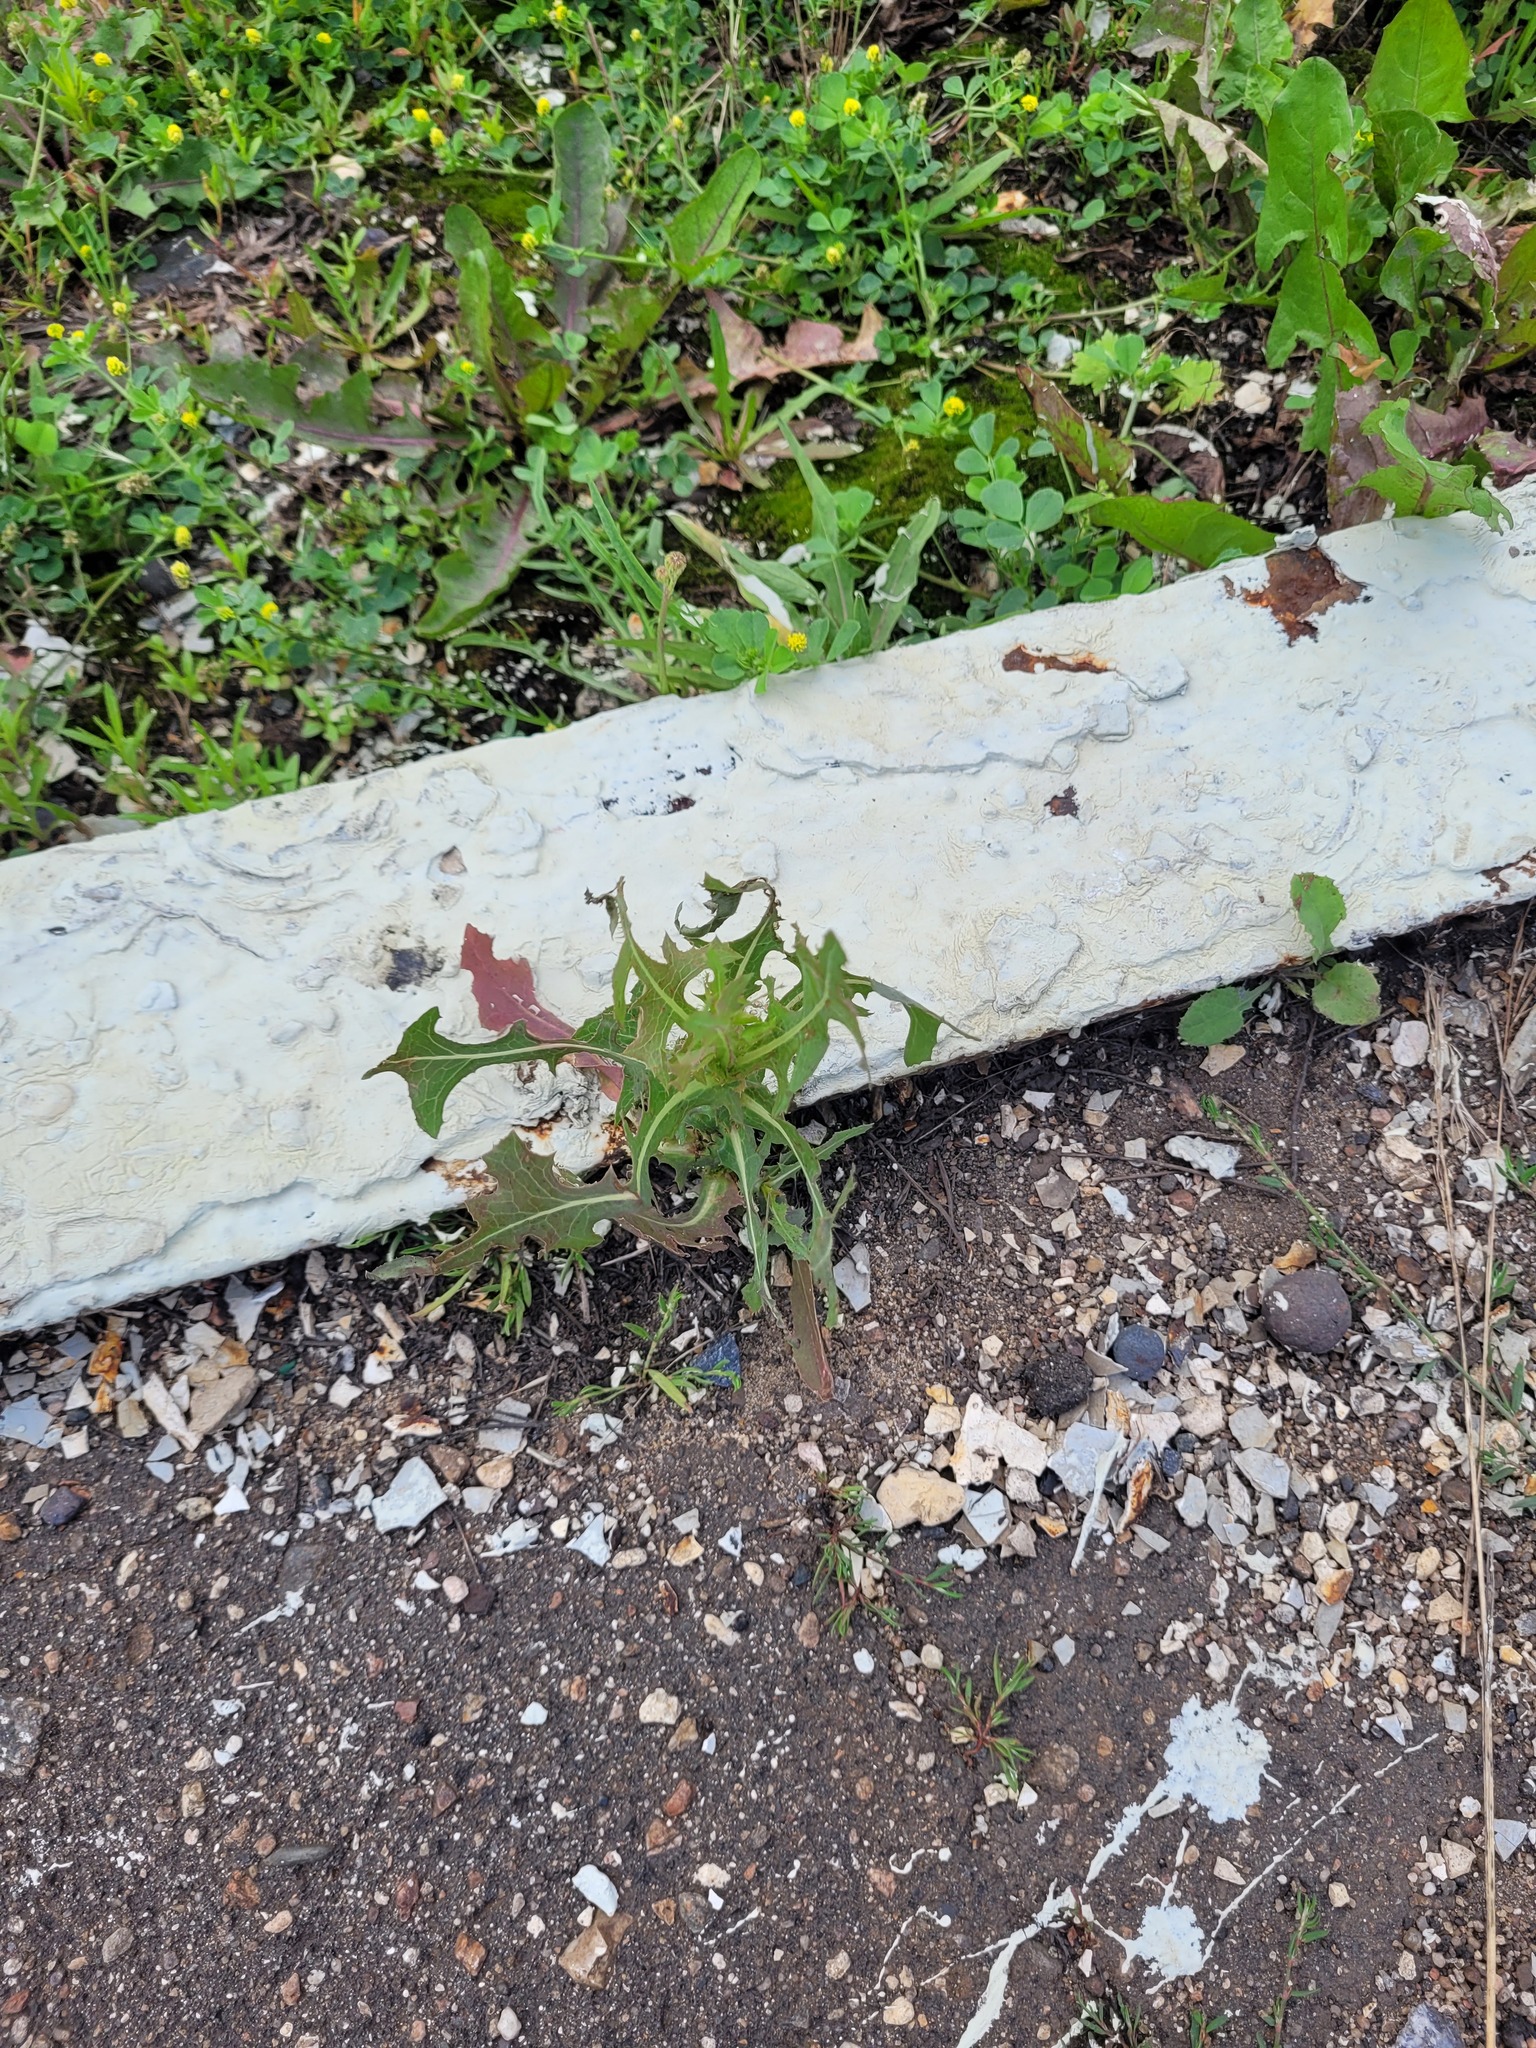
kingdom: Plantae
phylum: Tracheophyta
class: Magnoliopsida
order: Asterales
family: Asteraceae
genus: Lactuca
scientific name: Lactuca serriola
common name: Prickly lettuce
